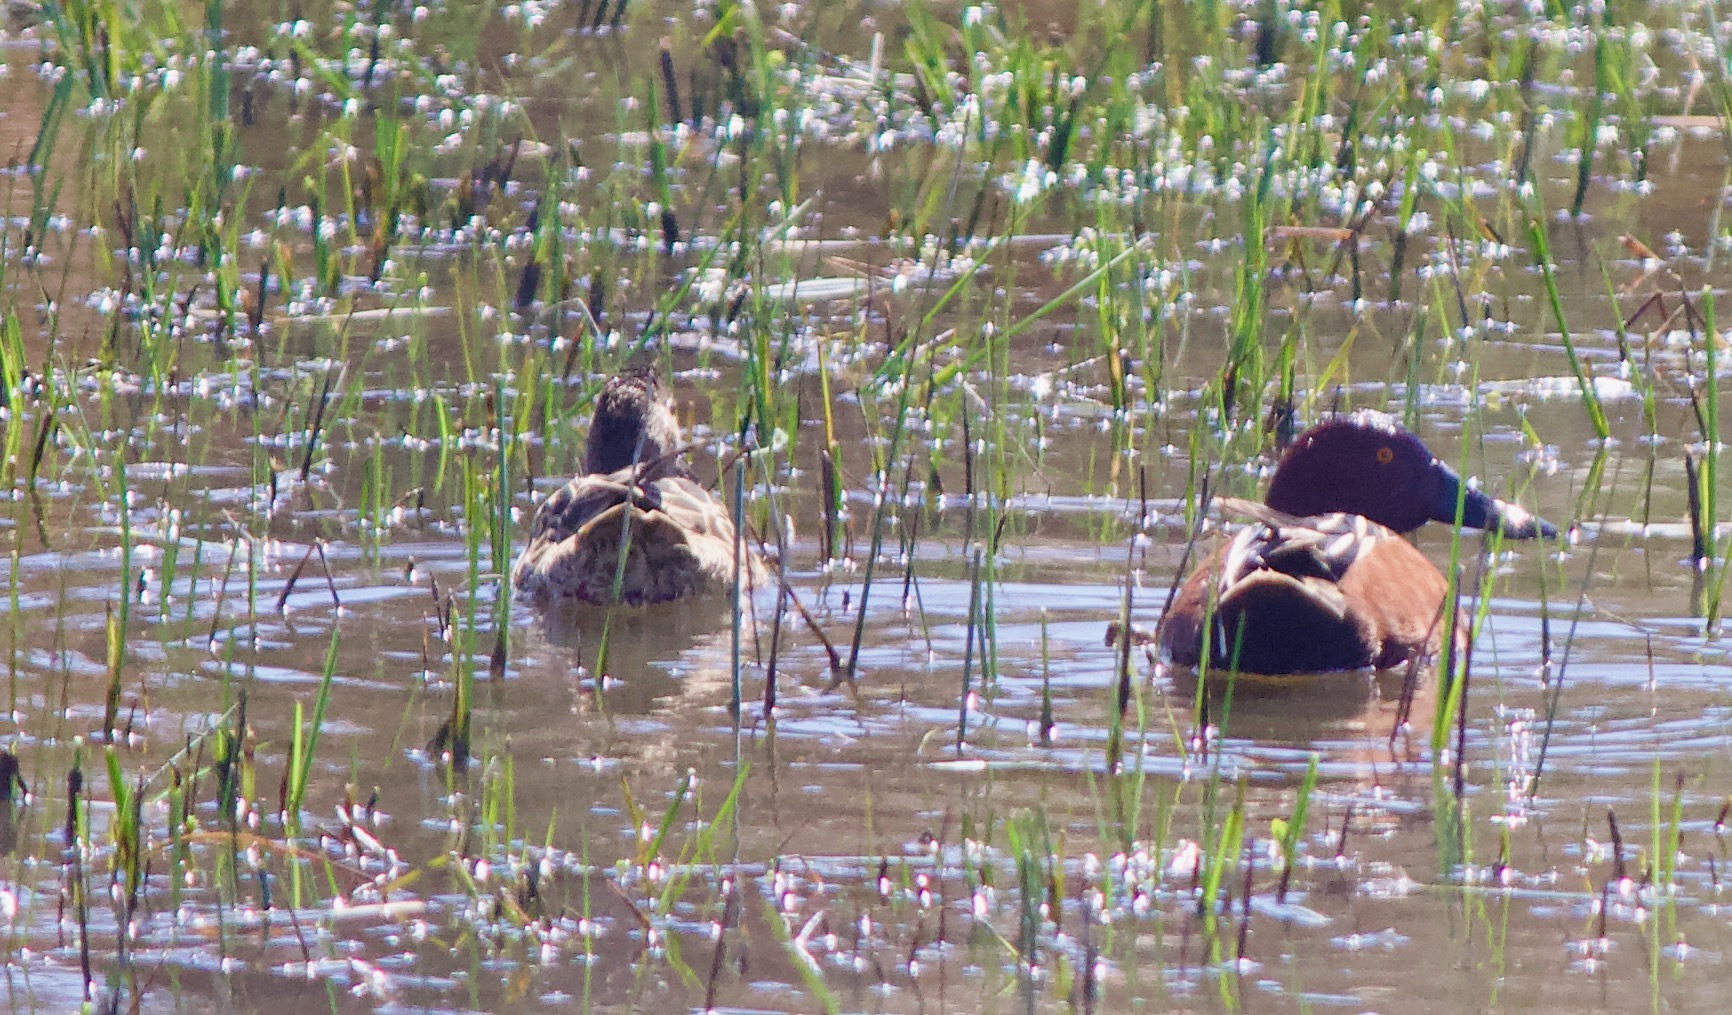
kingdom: Animalia
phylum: Chordata
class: Aves
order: Anseriformes
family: Anatidae
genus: Spatula
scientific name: Spatula cyanoptera
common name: Cinnamon teal
